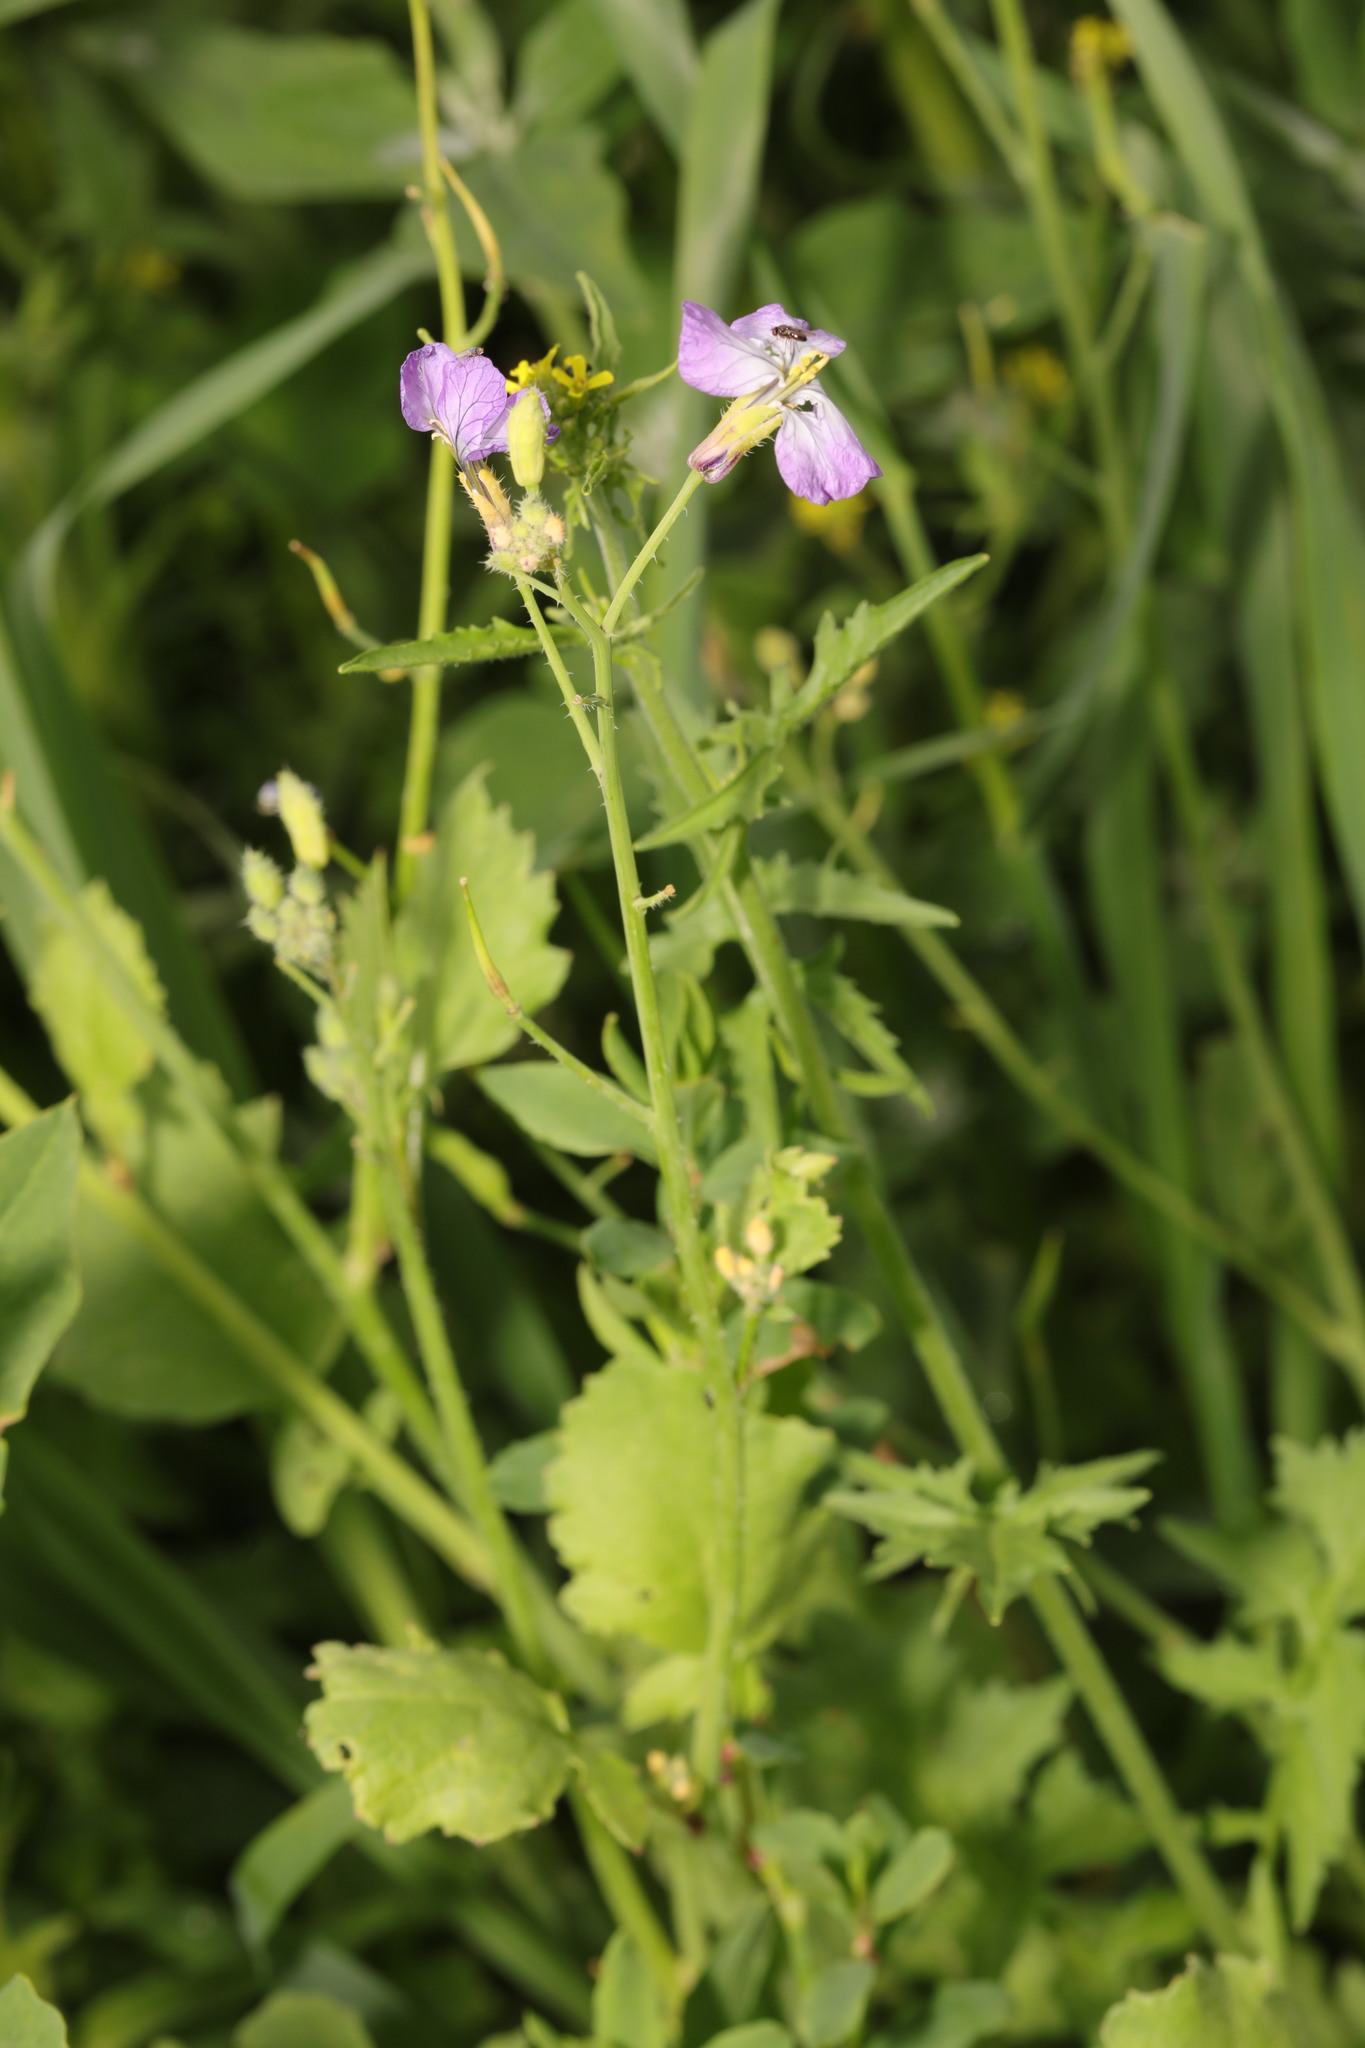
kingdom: Plantae
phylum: Tracheophyta
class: Magnoliopsida
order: Brassicales
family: Brassicaceae
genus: Raphanus
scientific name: Raphanus sativus
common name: Cultivated radish
